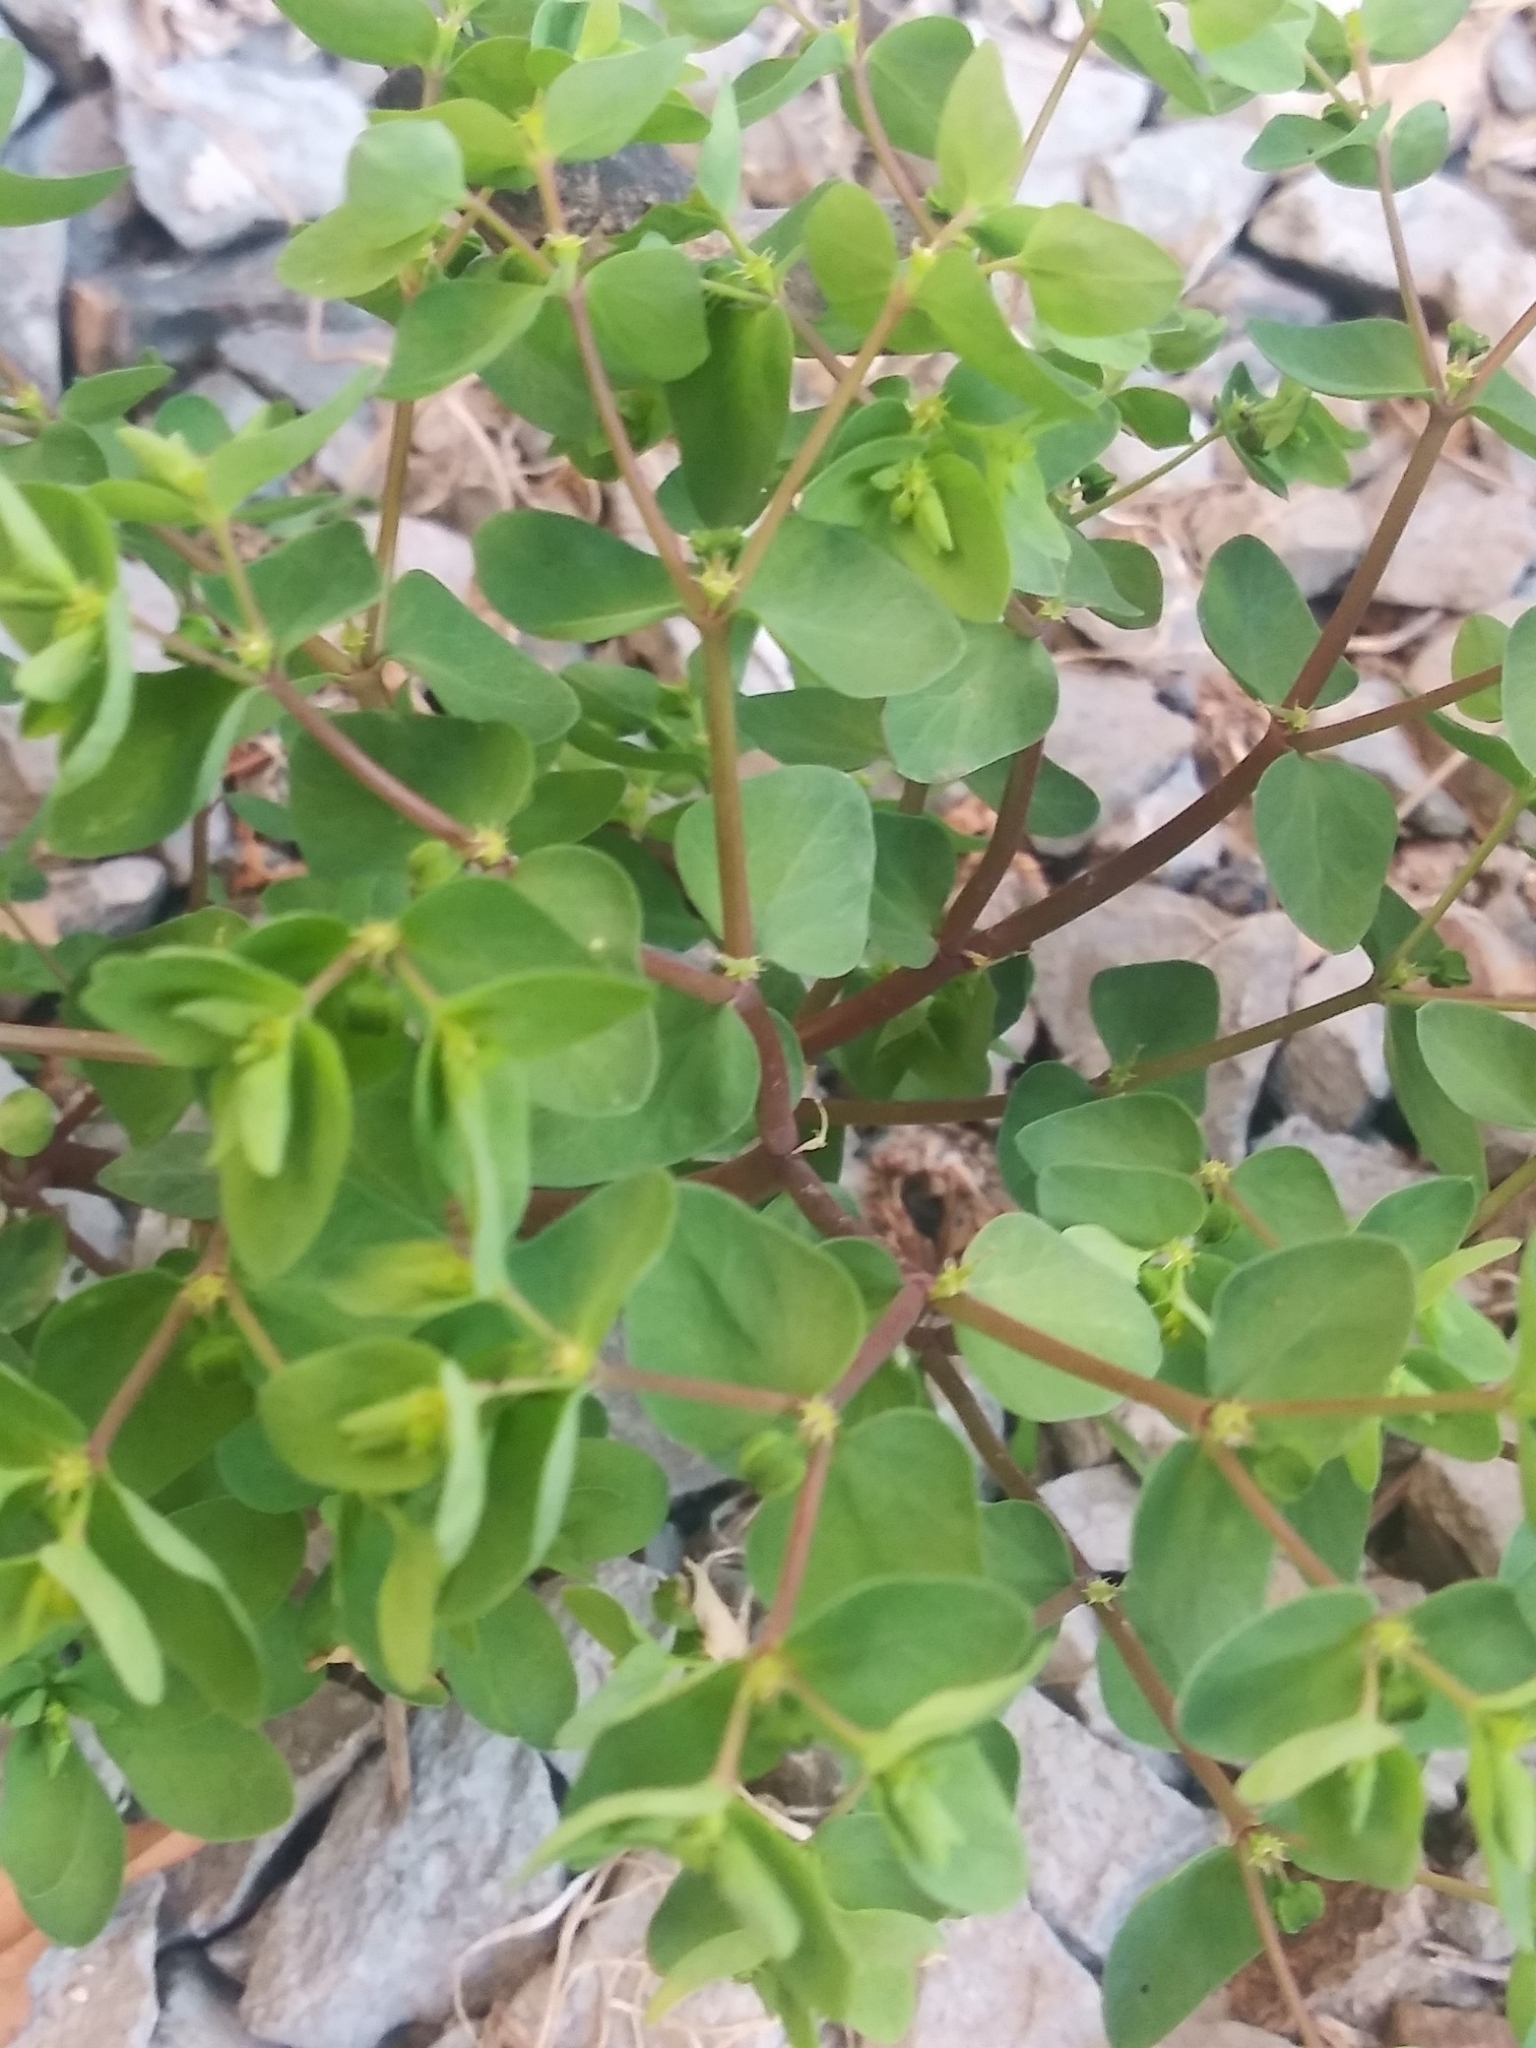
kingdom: Plantae
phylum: Tracheophyta
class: Magnoliopsida
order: Malpighiales
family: Euphorbiaceae
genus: Euphorbia
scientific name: Euphorbia peplus
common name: Petty spurge
